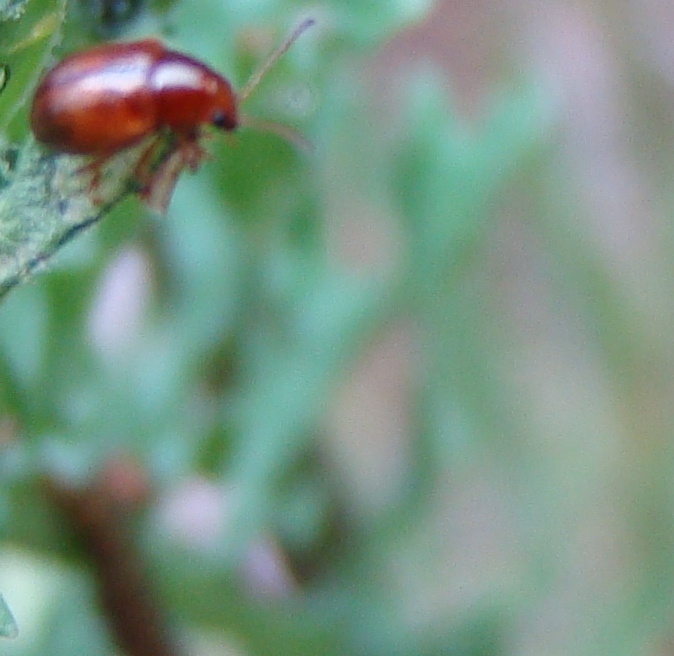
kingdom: Animalia
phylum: Arthropoda
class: Insecta
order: Coleoptera
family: Chrysomelidae
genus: Eucolaspis
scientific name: Eucolaspis
